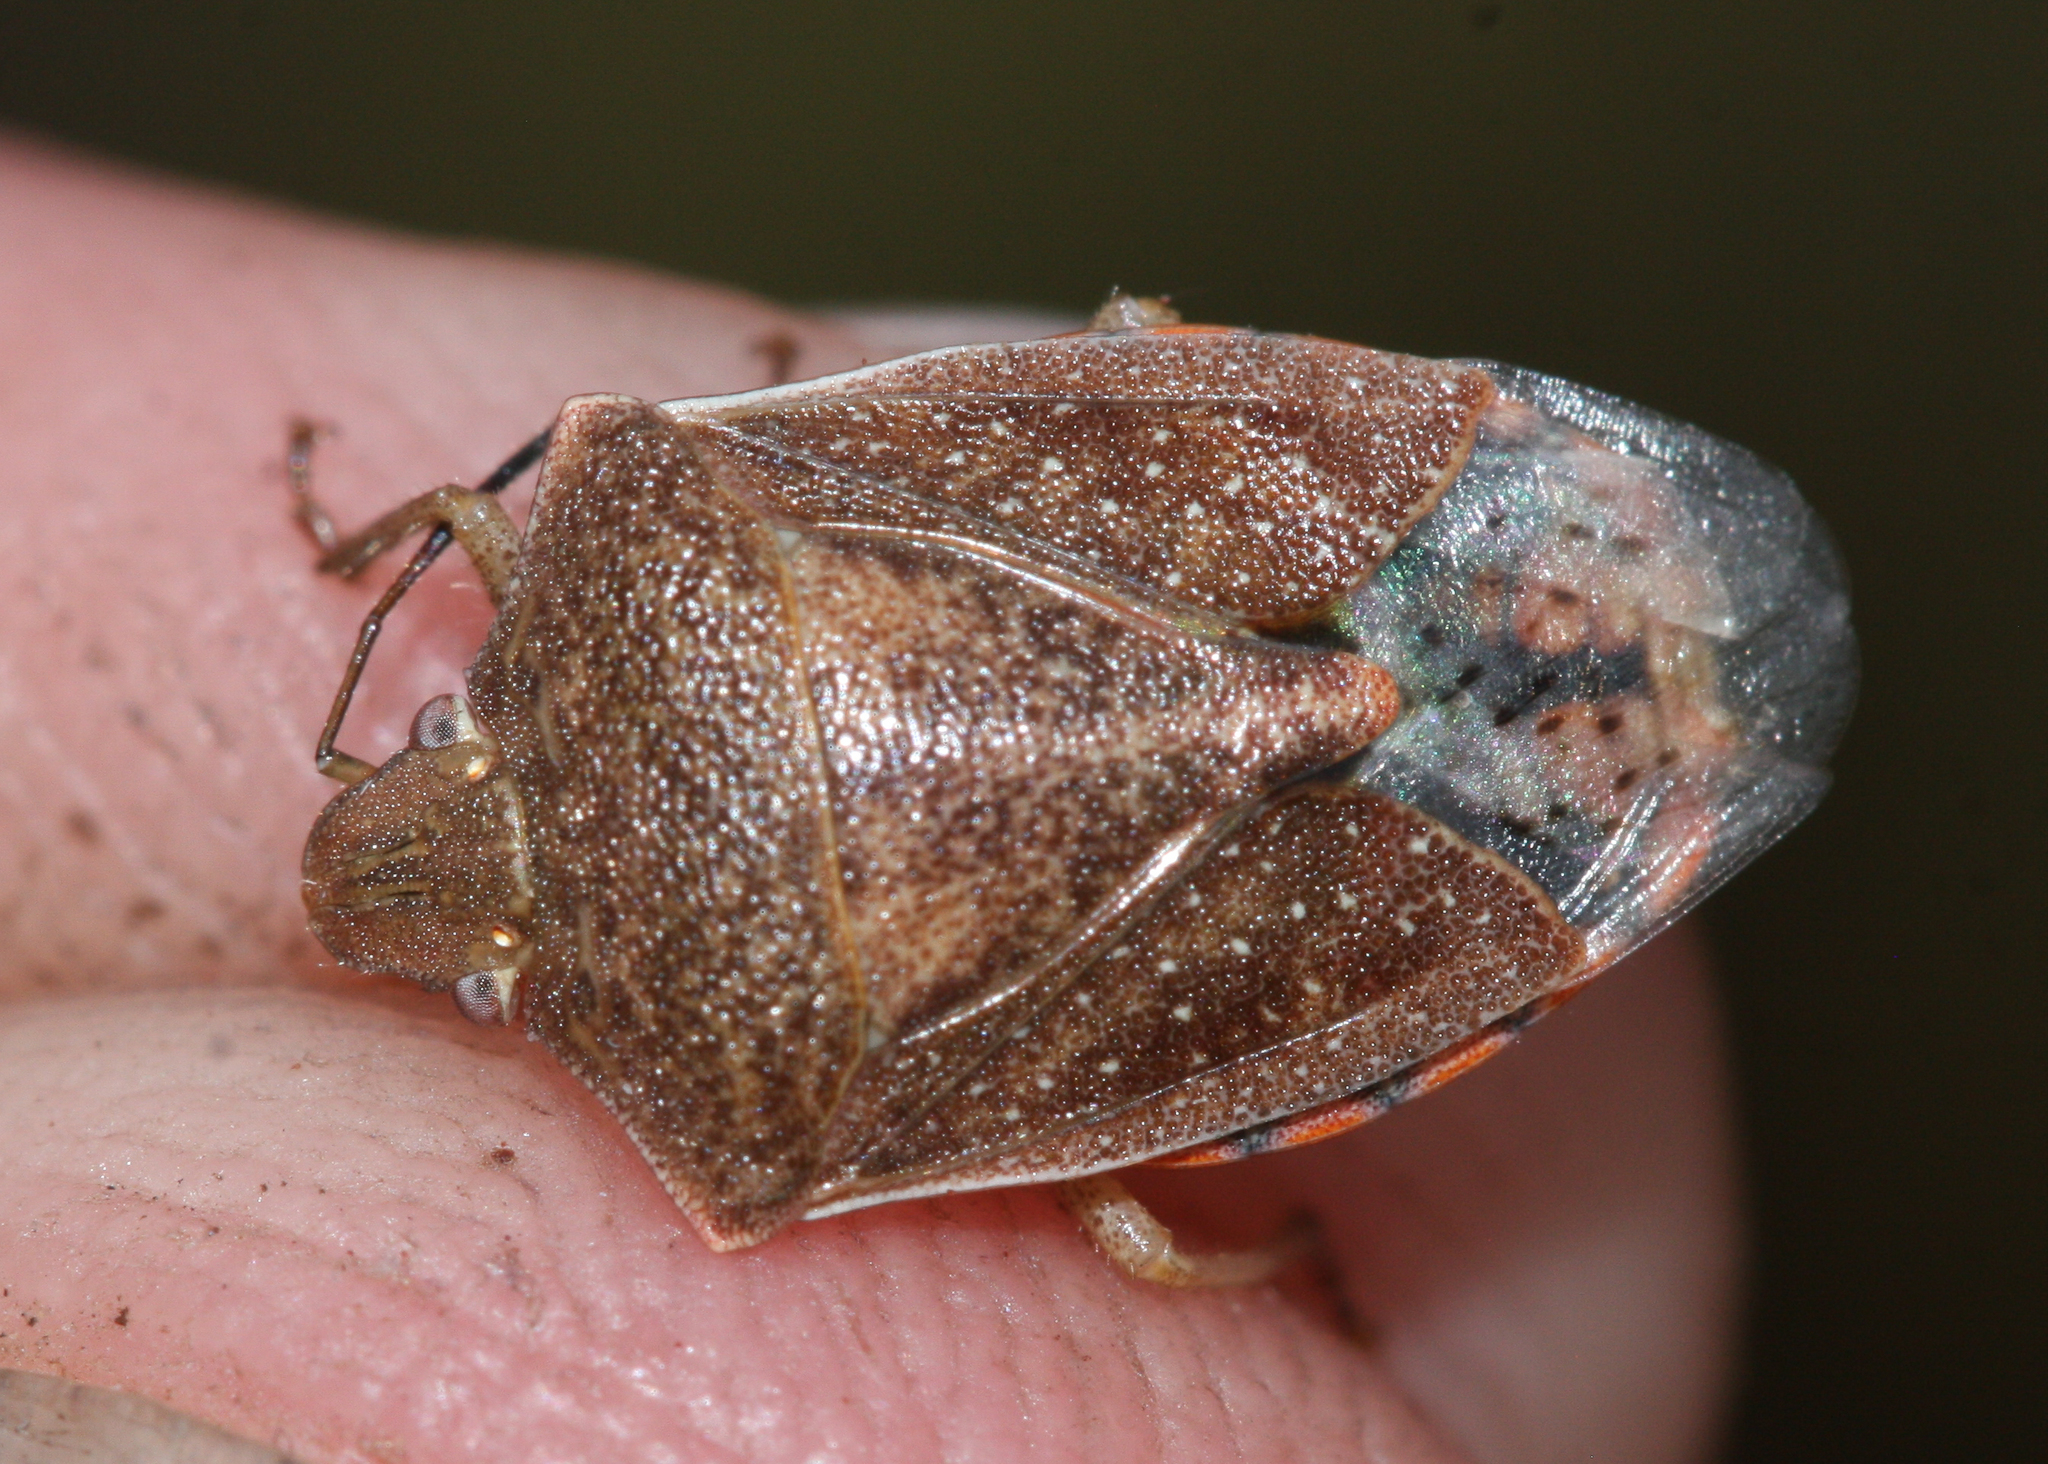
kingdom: Animalia
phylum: Arthropoda
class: Insecta
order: Hemiptera
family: Pentatomidae
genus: Thyanta
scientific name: Thyanta accerra
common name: Stink bug
